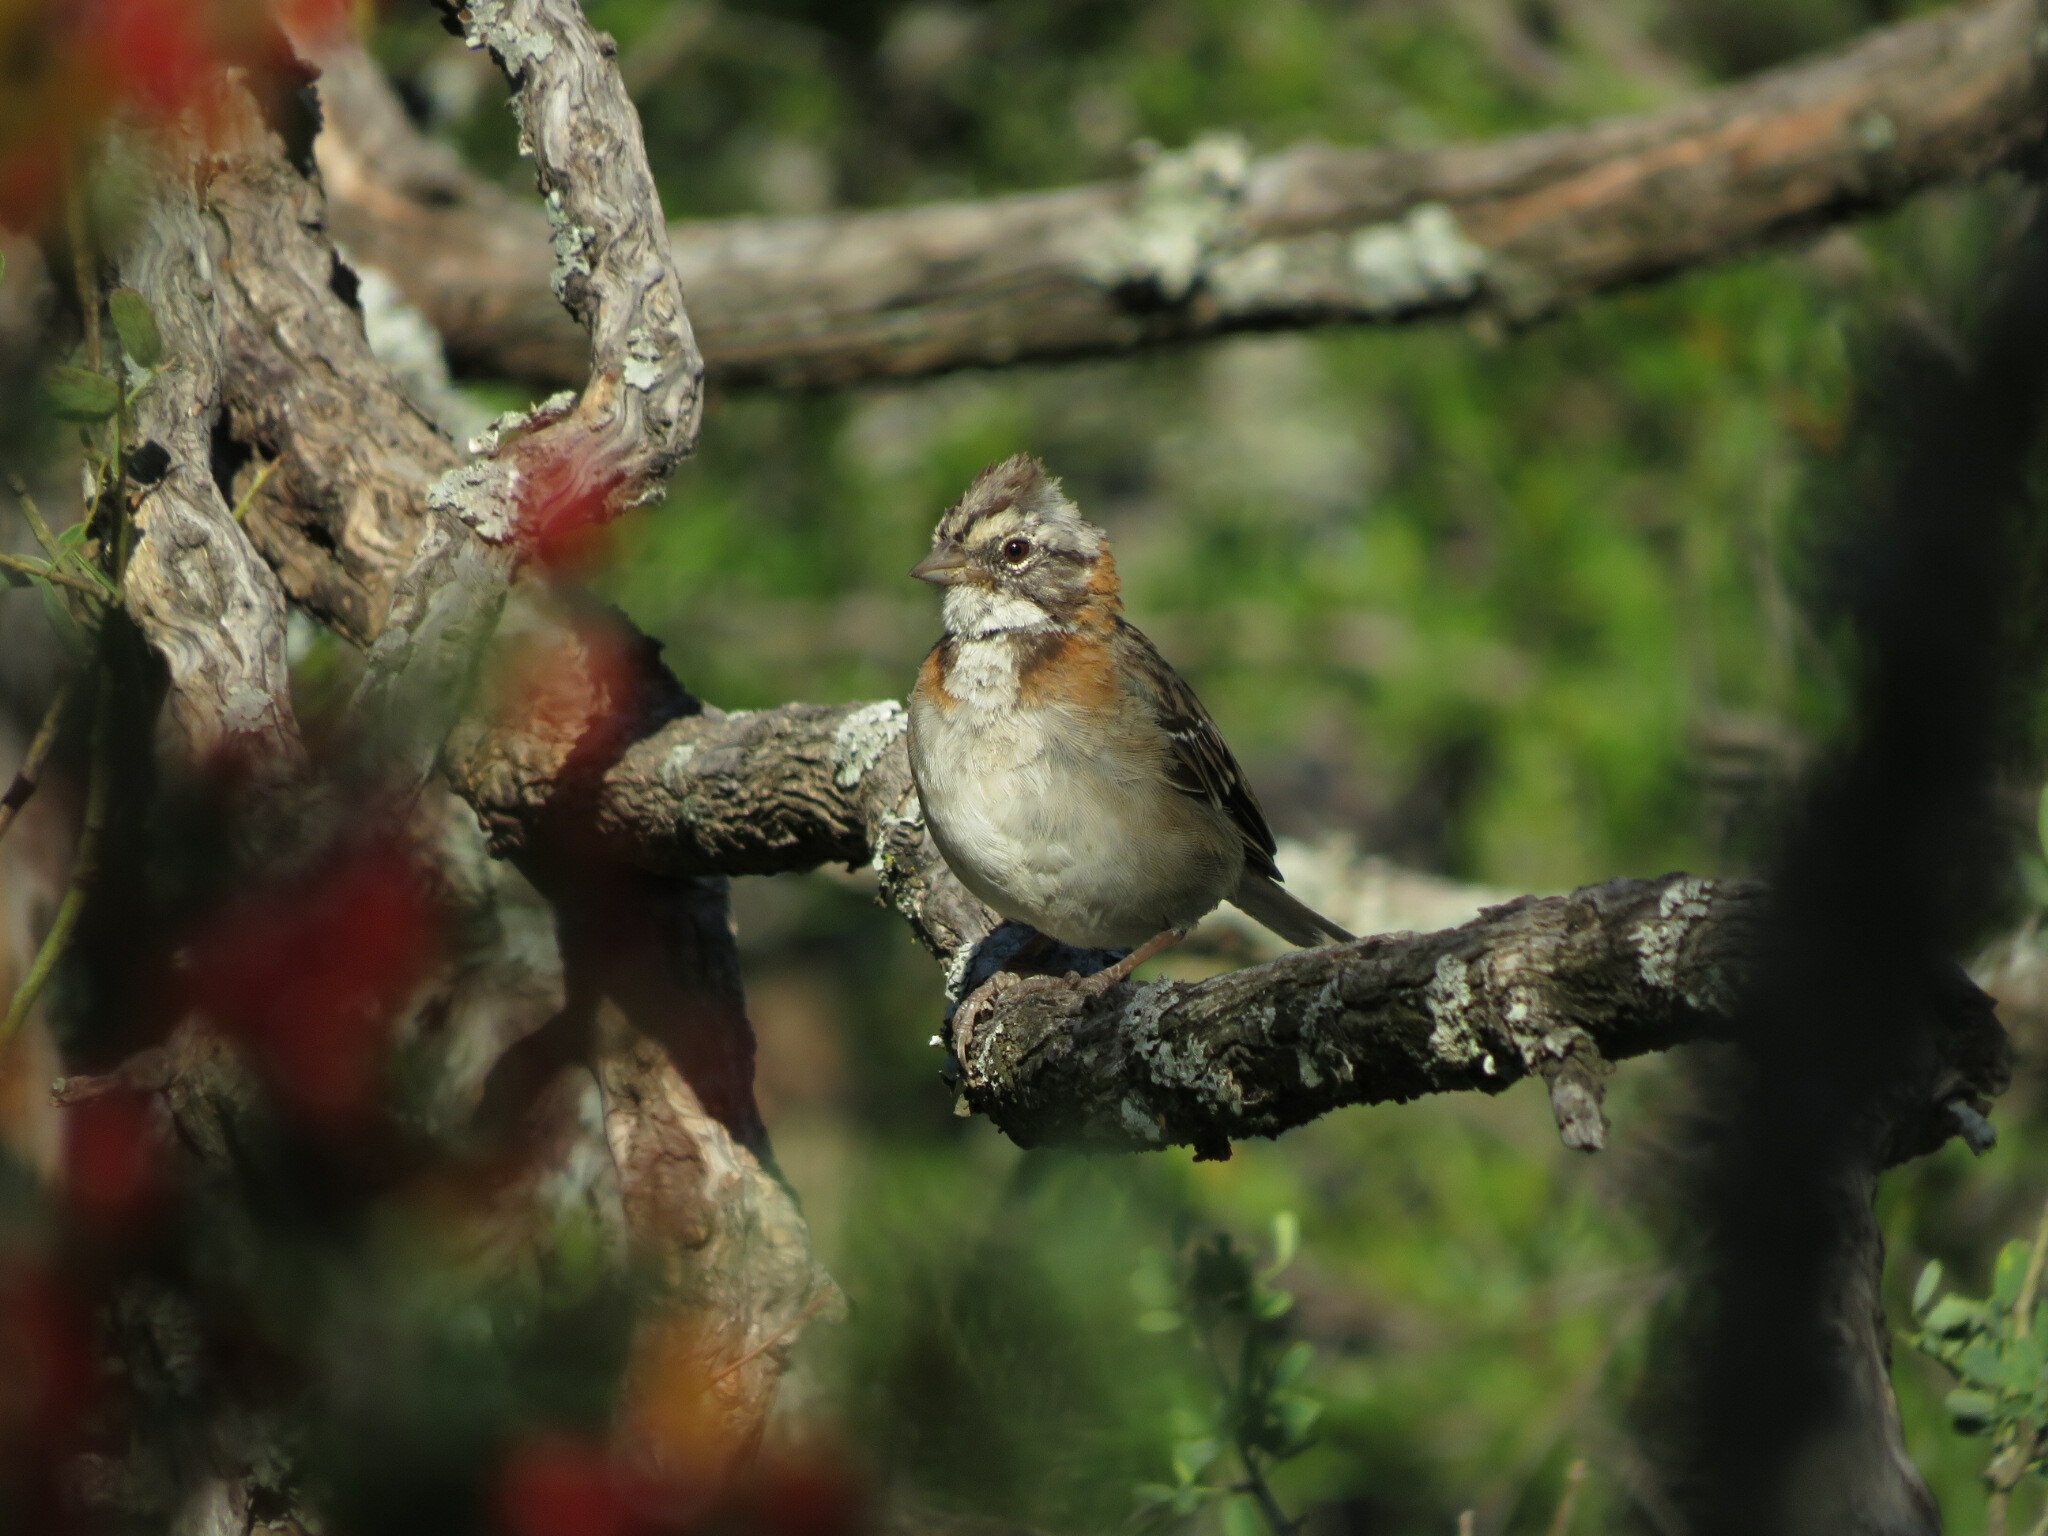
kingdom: Animalia
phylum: Chordata
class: Aves
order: Passeriformes
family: Passerellidae
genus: Zonotrichia
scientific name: Zonotrichia capensis
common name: Rufous-collared sparrow
